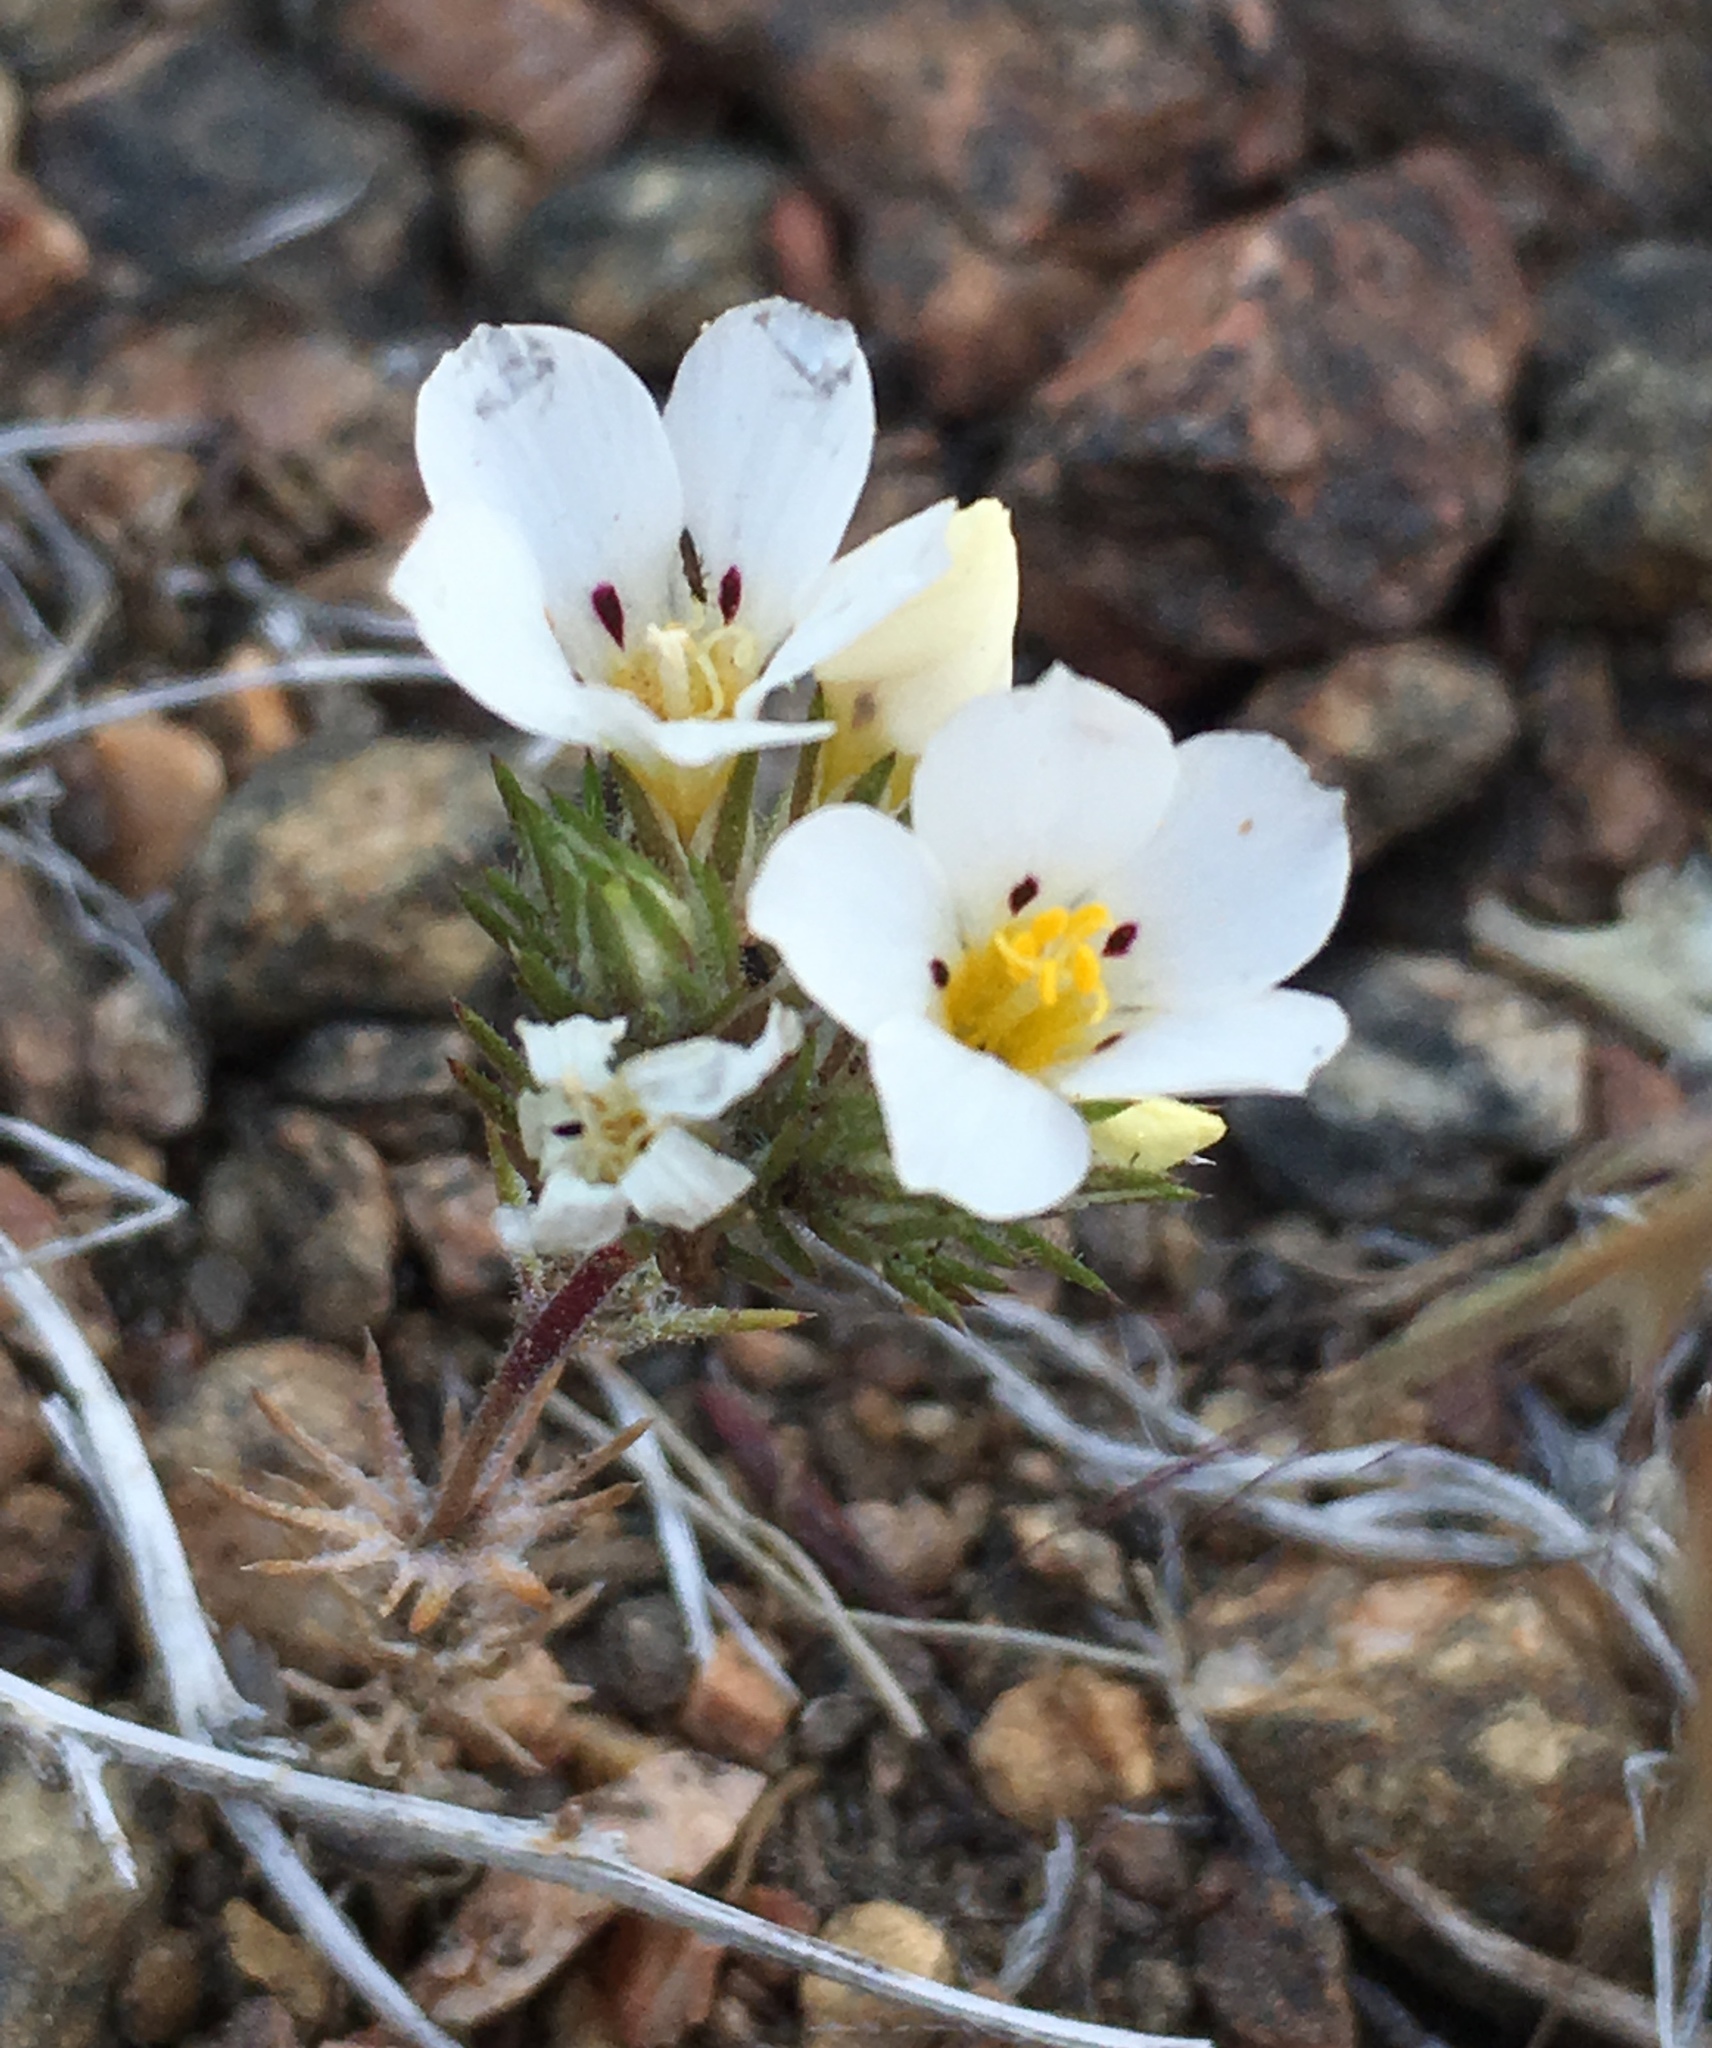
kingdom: Plantae
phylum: Tracheophyta
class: Magnoliopsida
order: Ericales
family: Polemoniaceae
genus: Linanthus
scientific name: Linanthus killipii
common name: Baldwin lake linanthus
